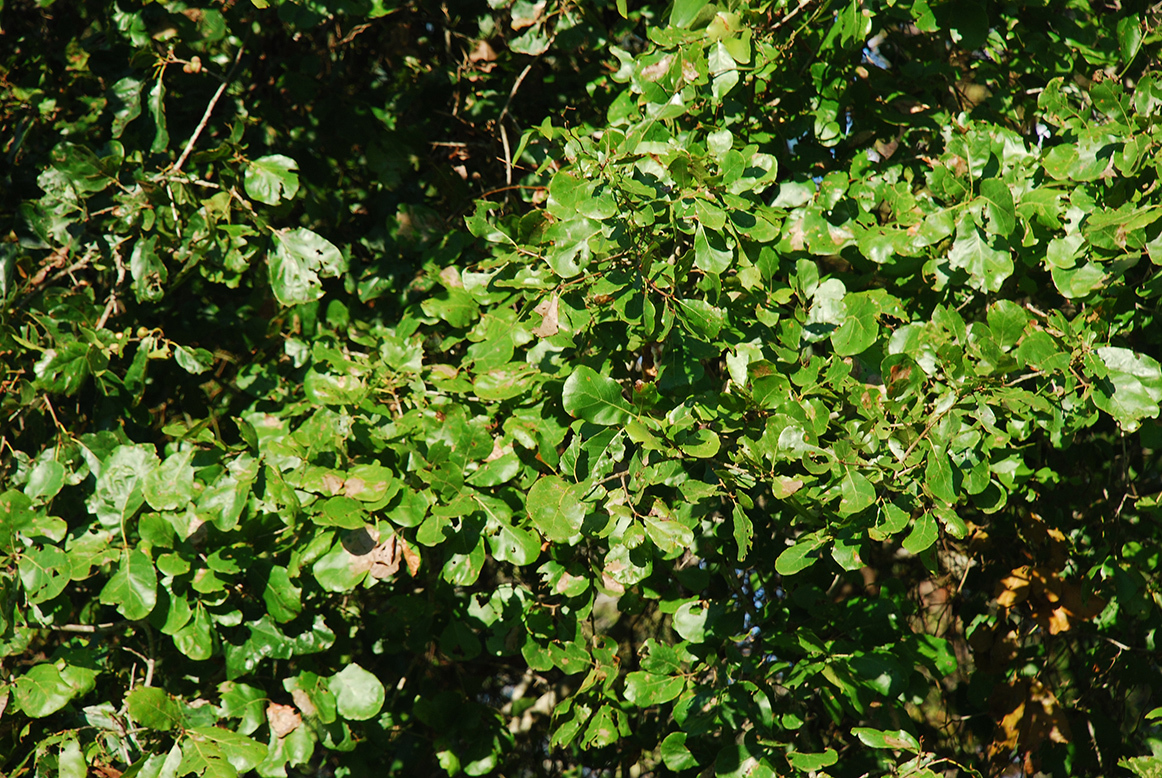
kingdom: Plantae
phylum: Tracheophyta
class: Magnoliopsida
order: Fagales
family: Fagaceae
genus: Quercus
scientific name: Quercus arkansana
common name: Arkansas oak
